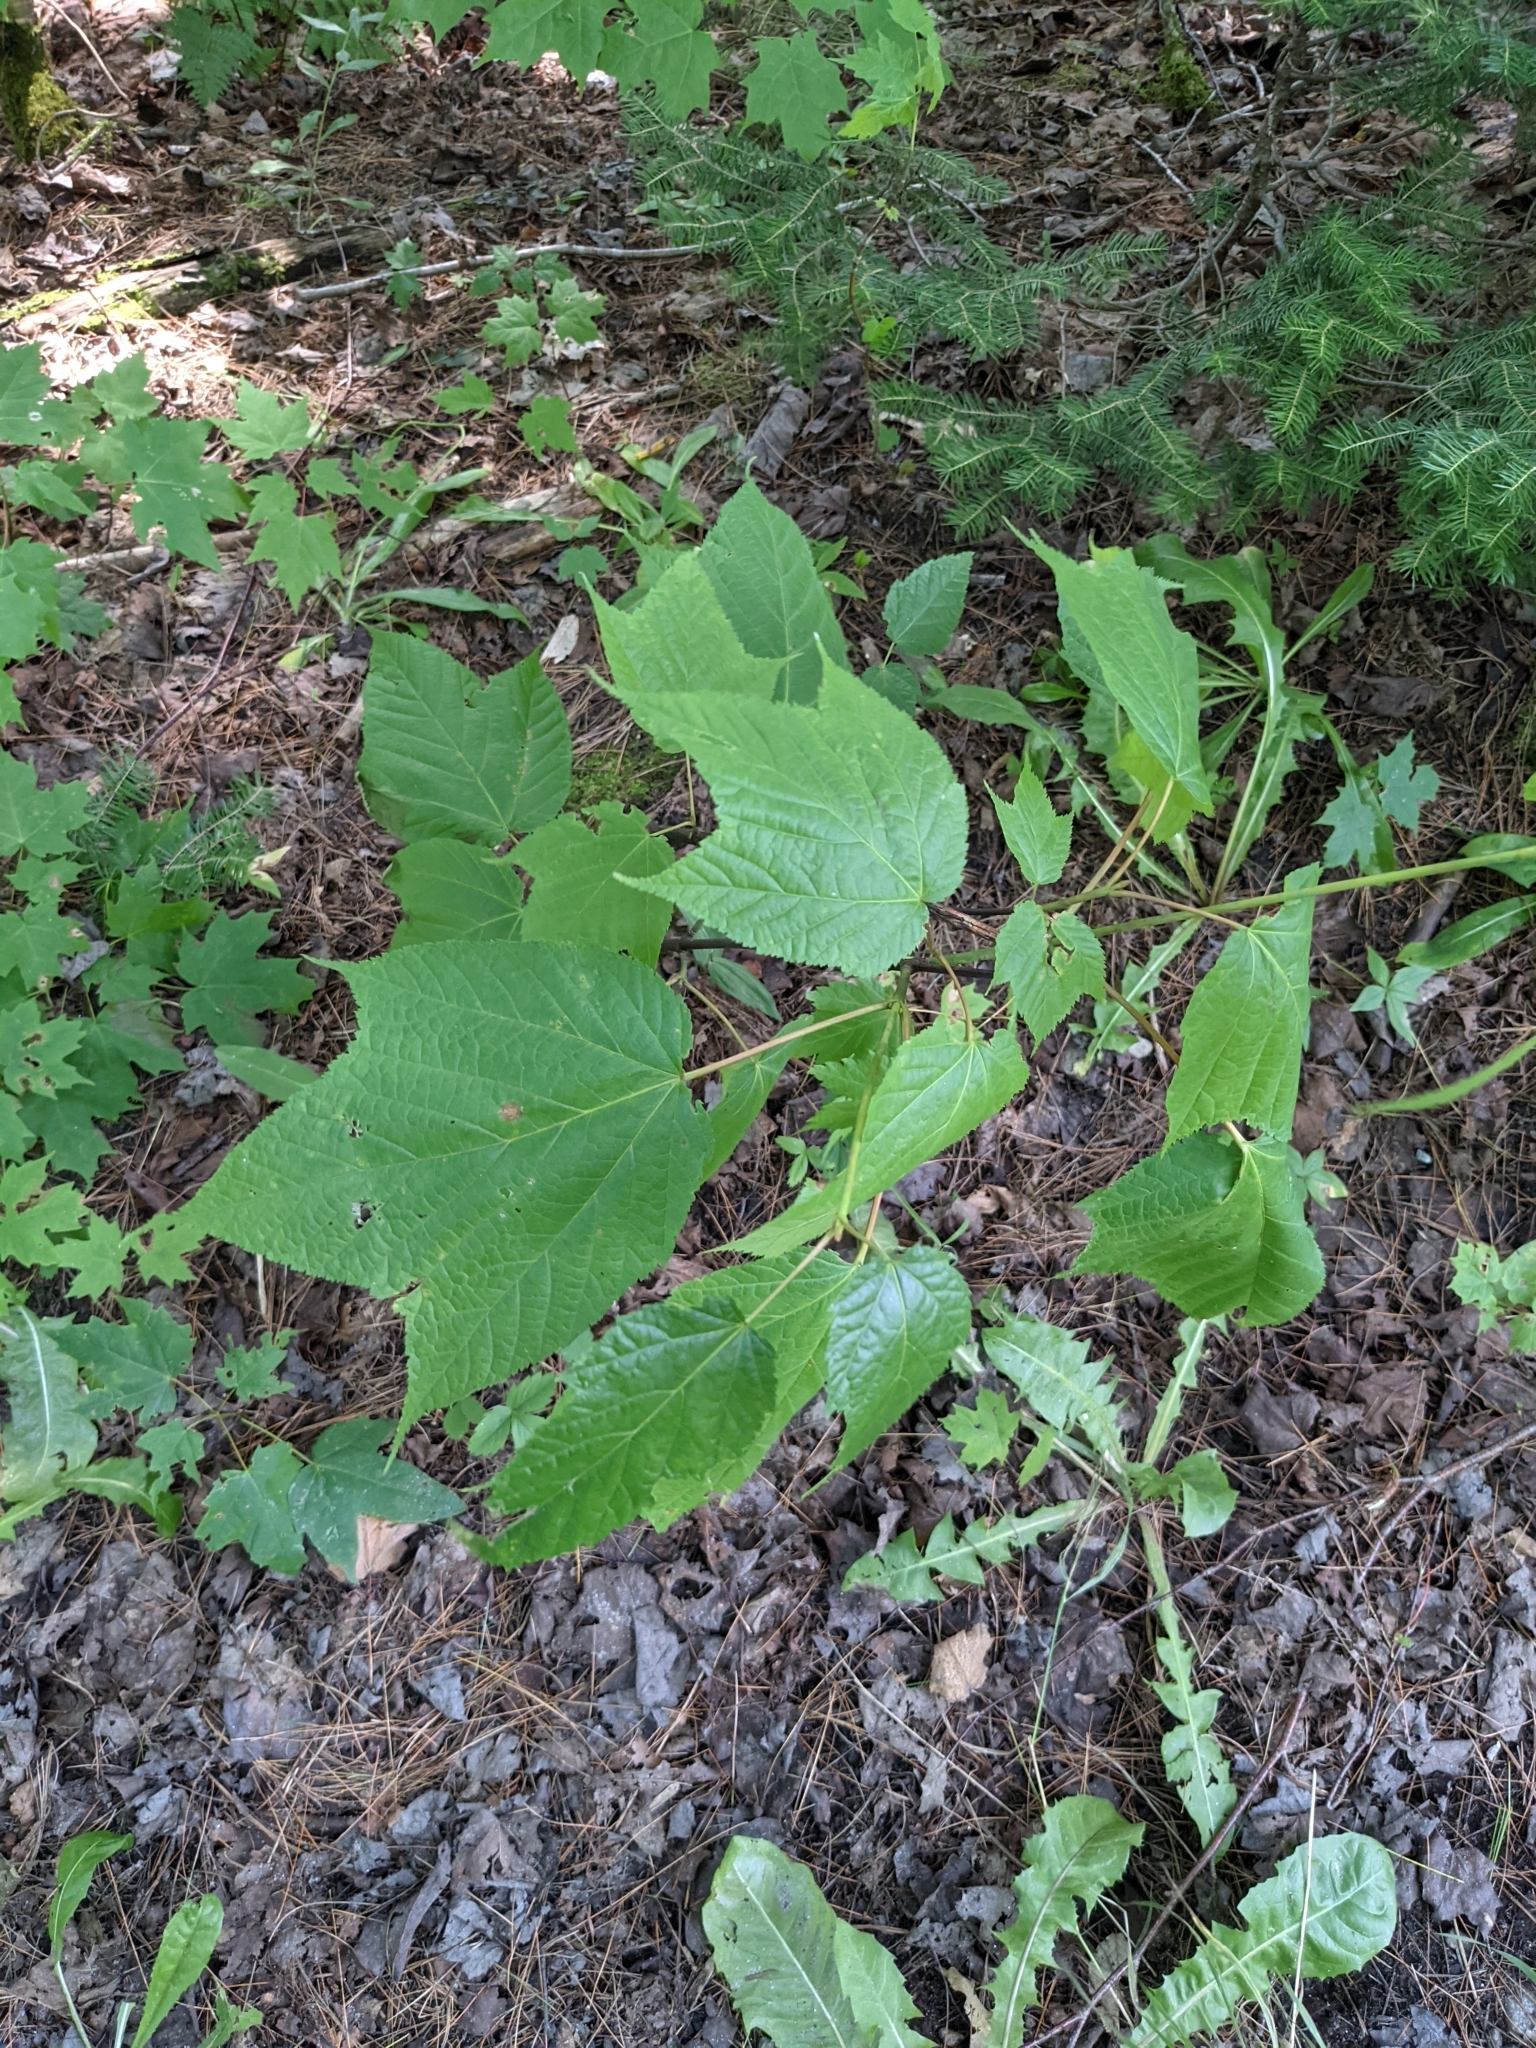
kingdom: Plantae
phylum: Tracheophyta
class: Magnoliopsida
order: Sapindales
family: Sapindaceae
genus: Acer
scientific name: Acer pensylvanicum
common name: Moosewood
